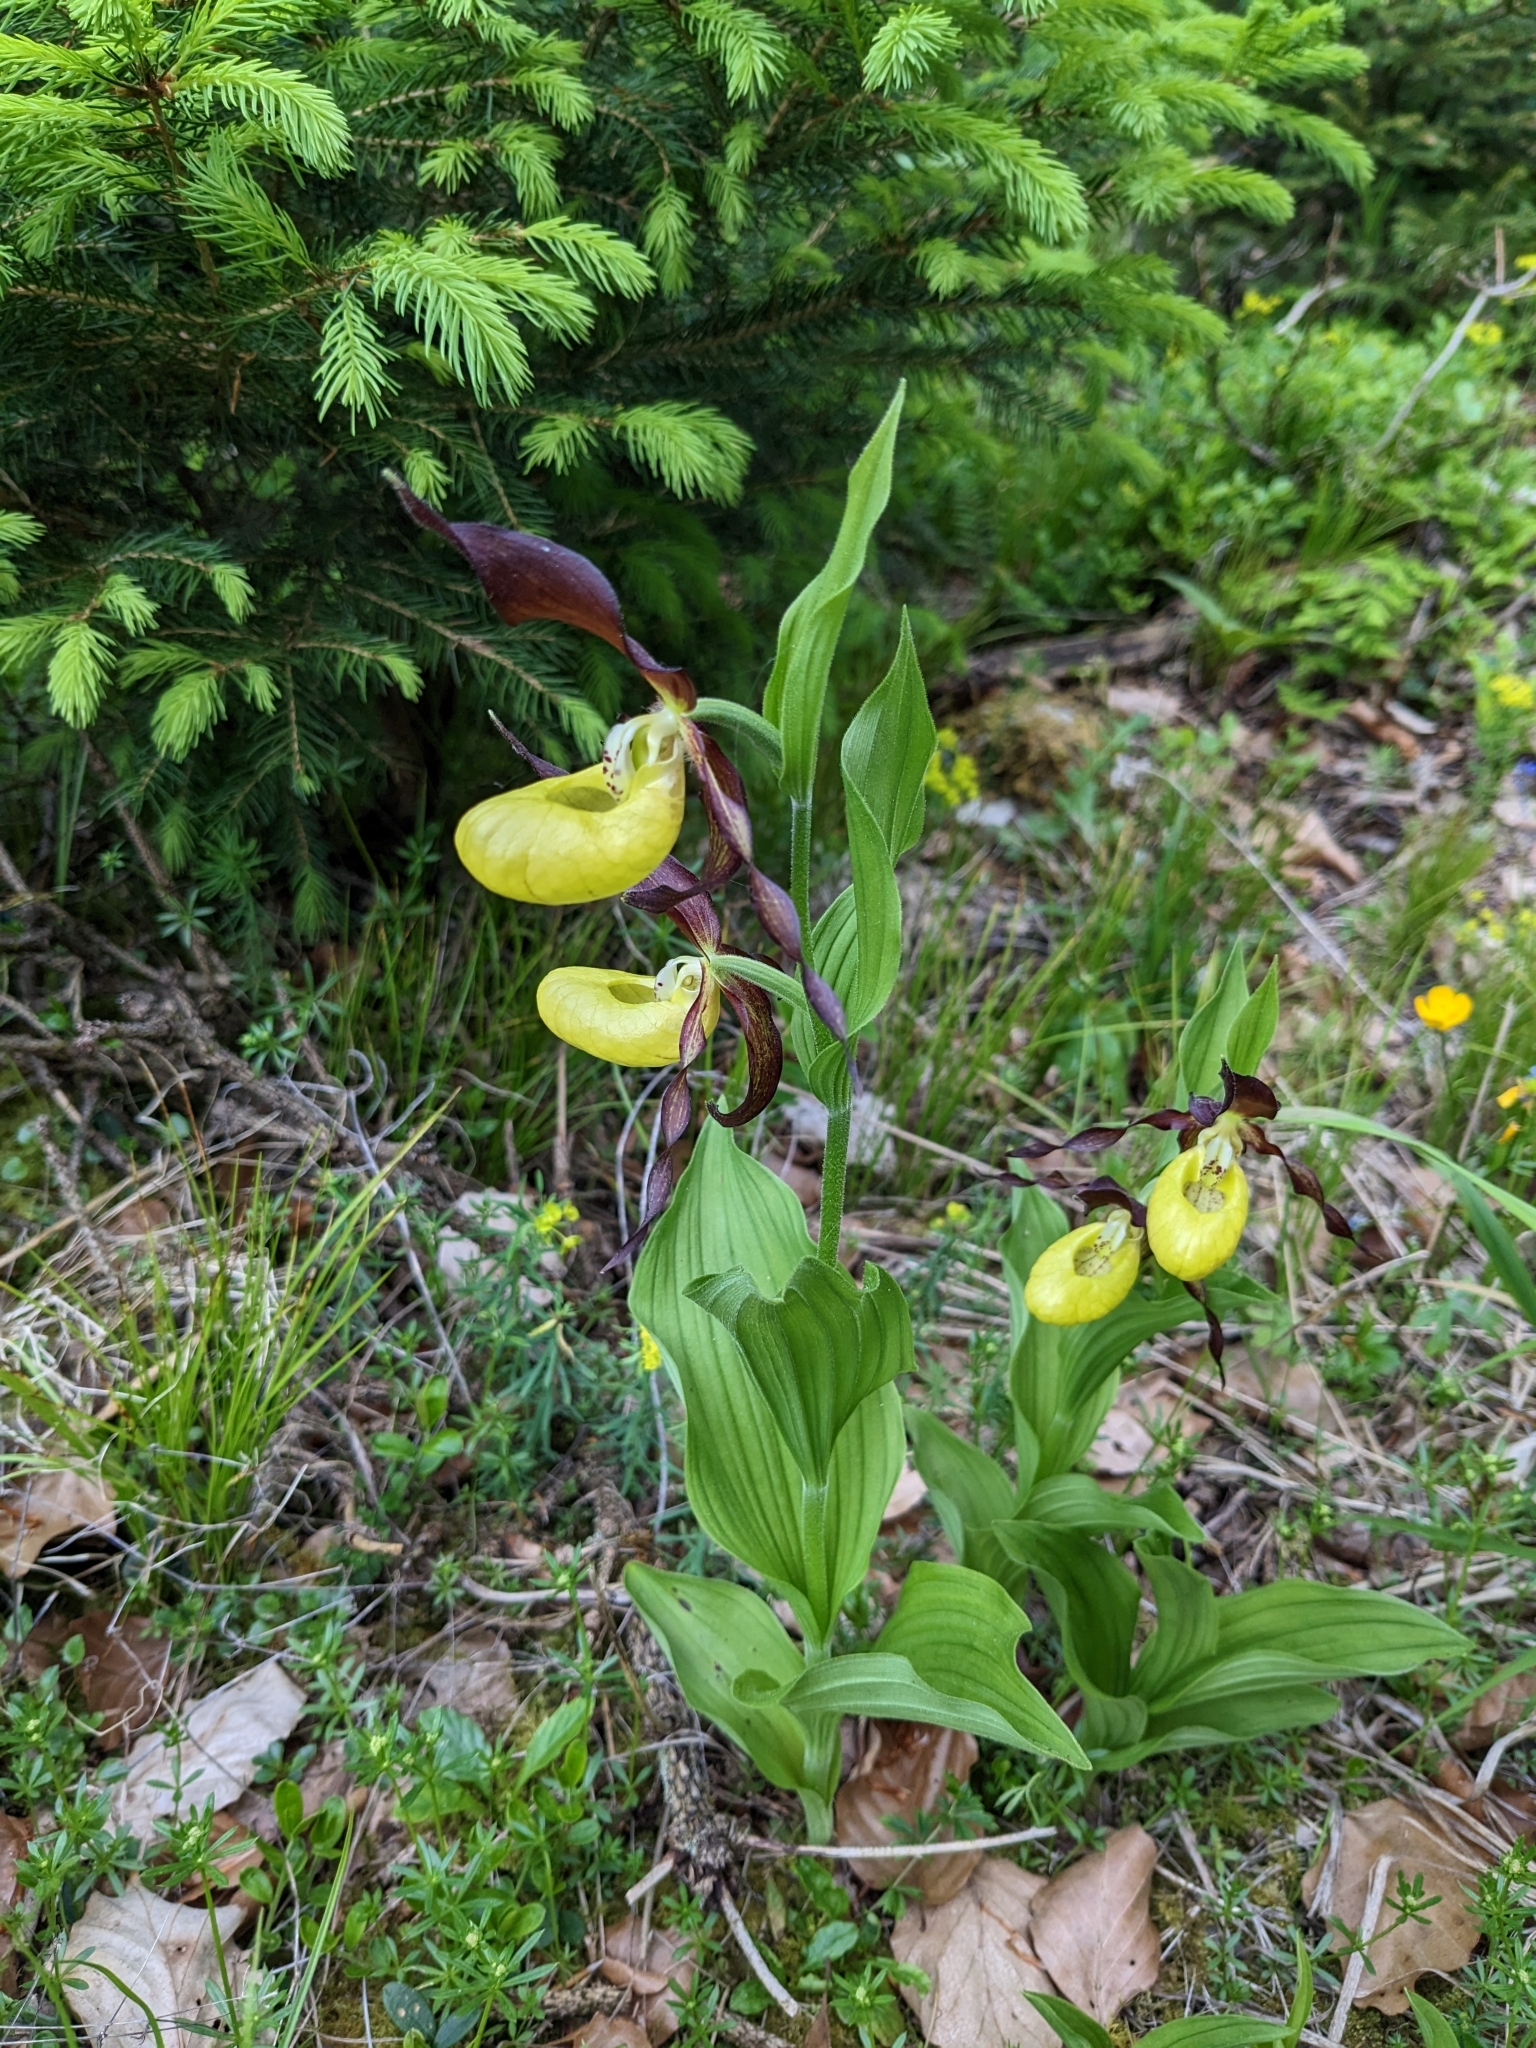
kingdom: Plantae
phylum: Tracheophyta
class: Liliopsida
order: Asparagales
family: Orchidaceae
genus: Cypripedium
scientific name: Cypripedium calceolus
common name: Lady's-slipper
